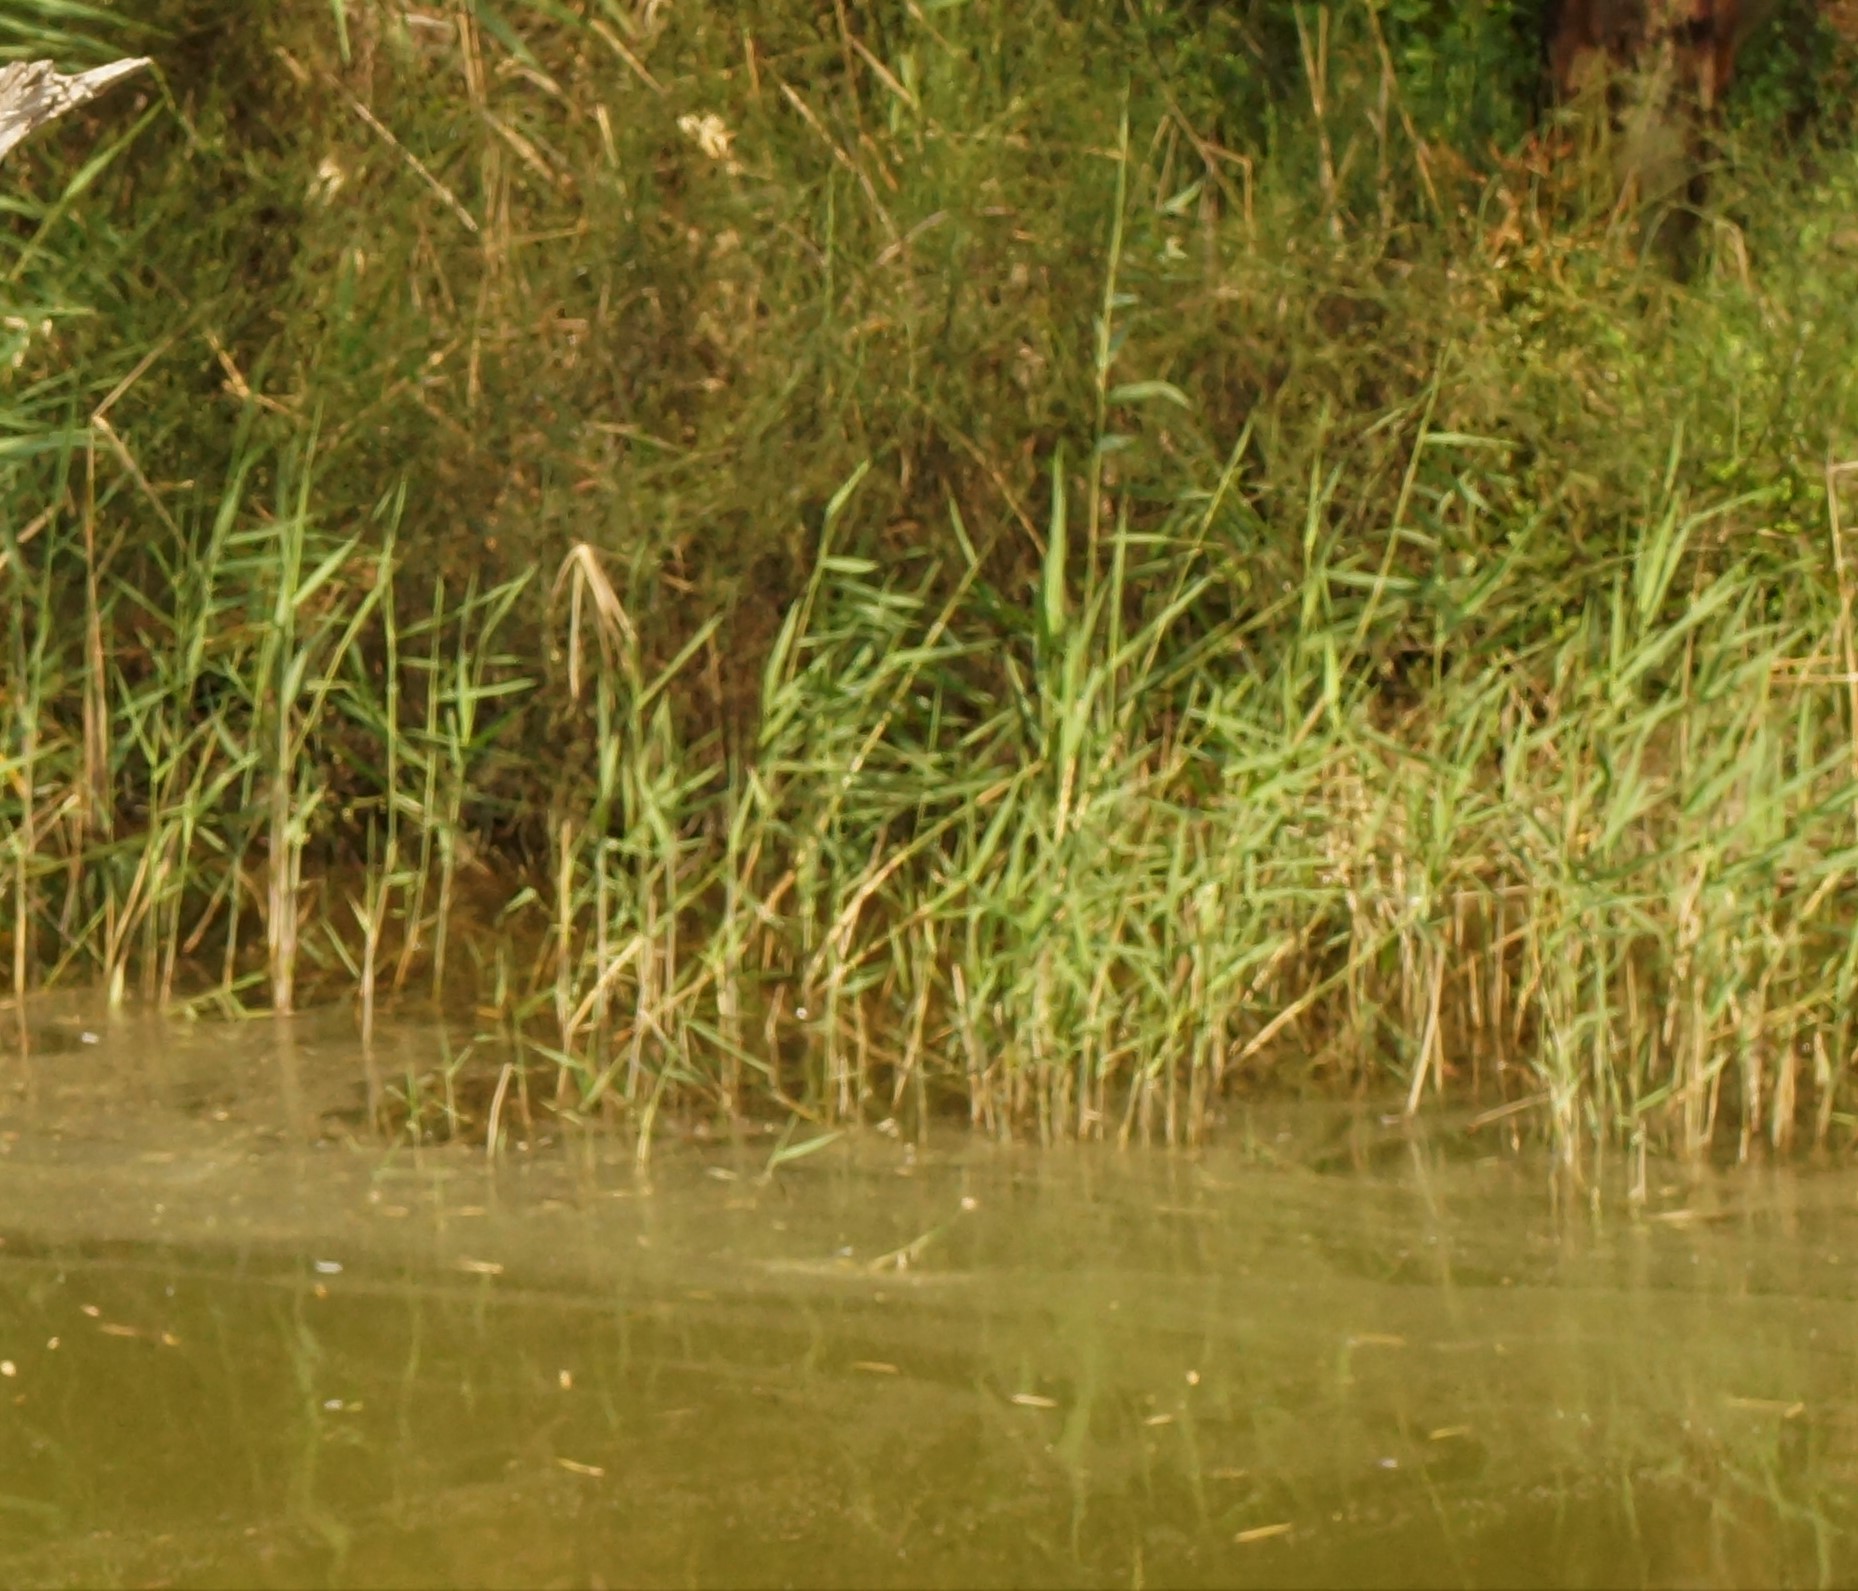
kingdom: Plantae
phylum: Tracheophyta
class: Liliopsida
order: Poales
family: Poaceae
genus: Phragmites
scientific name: Phragmites australis
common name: Common reed
